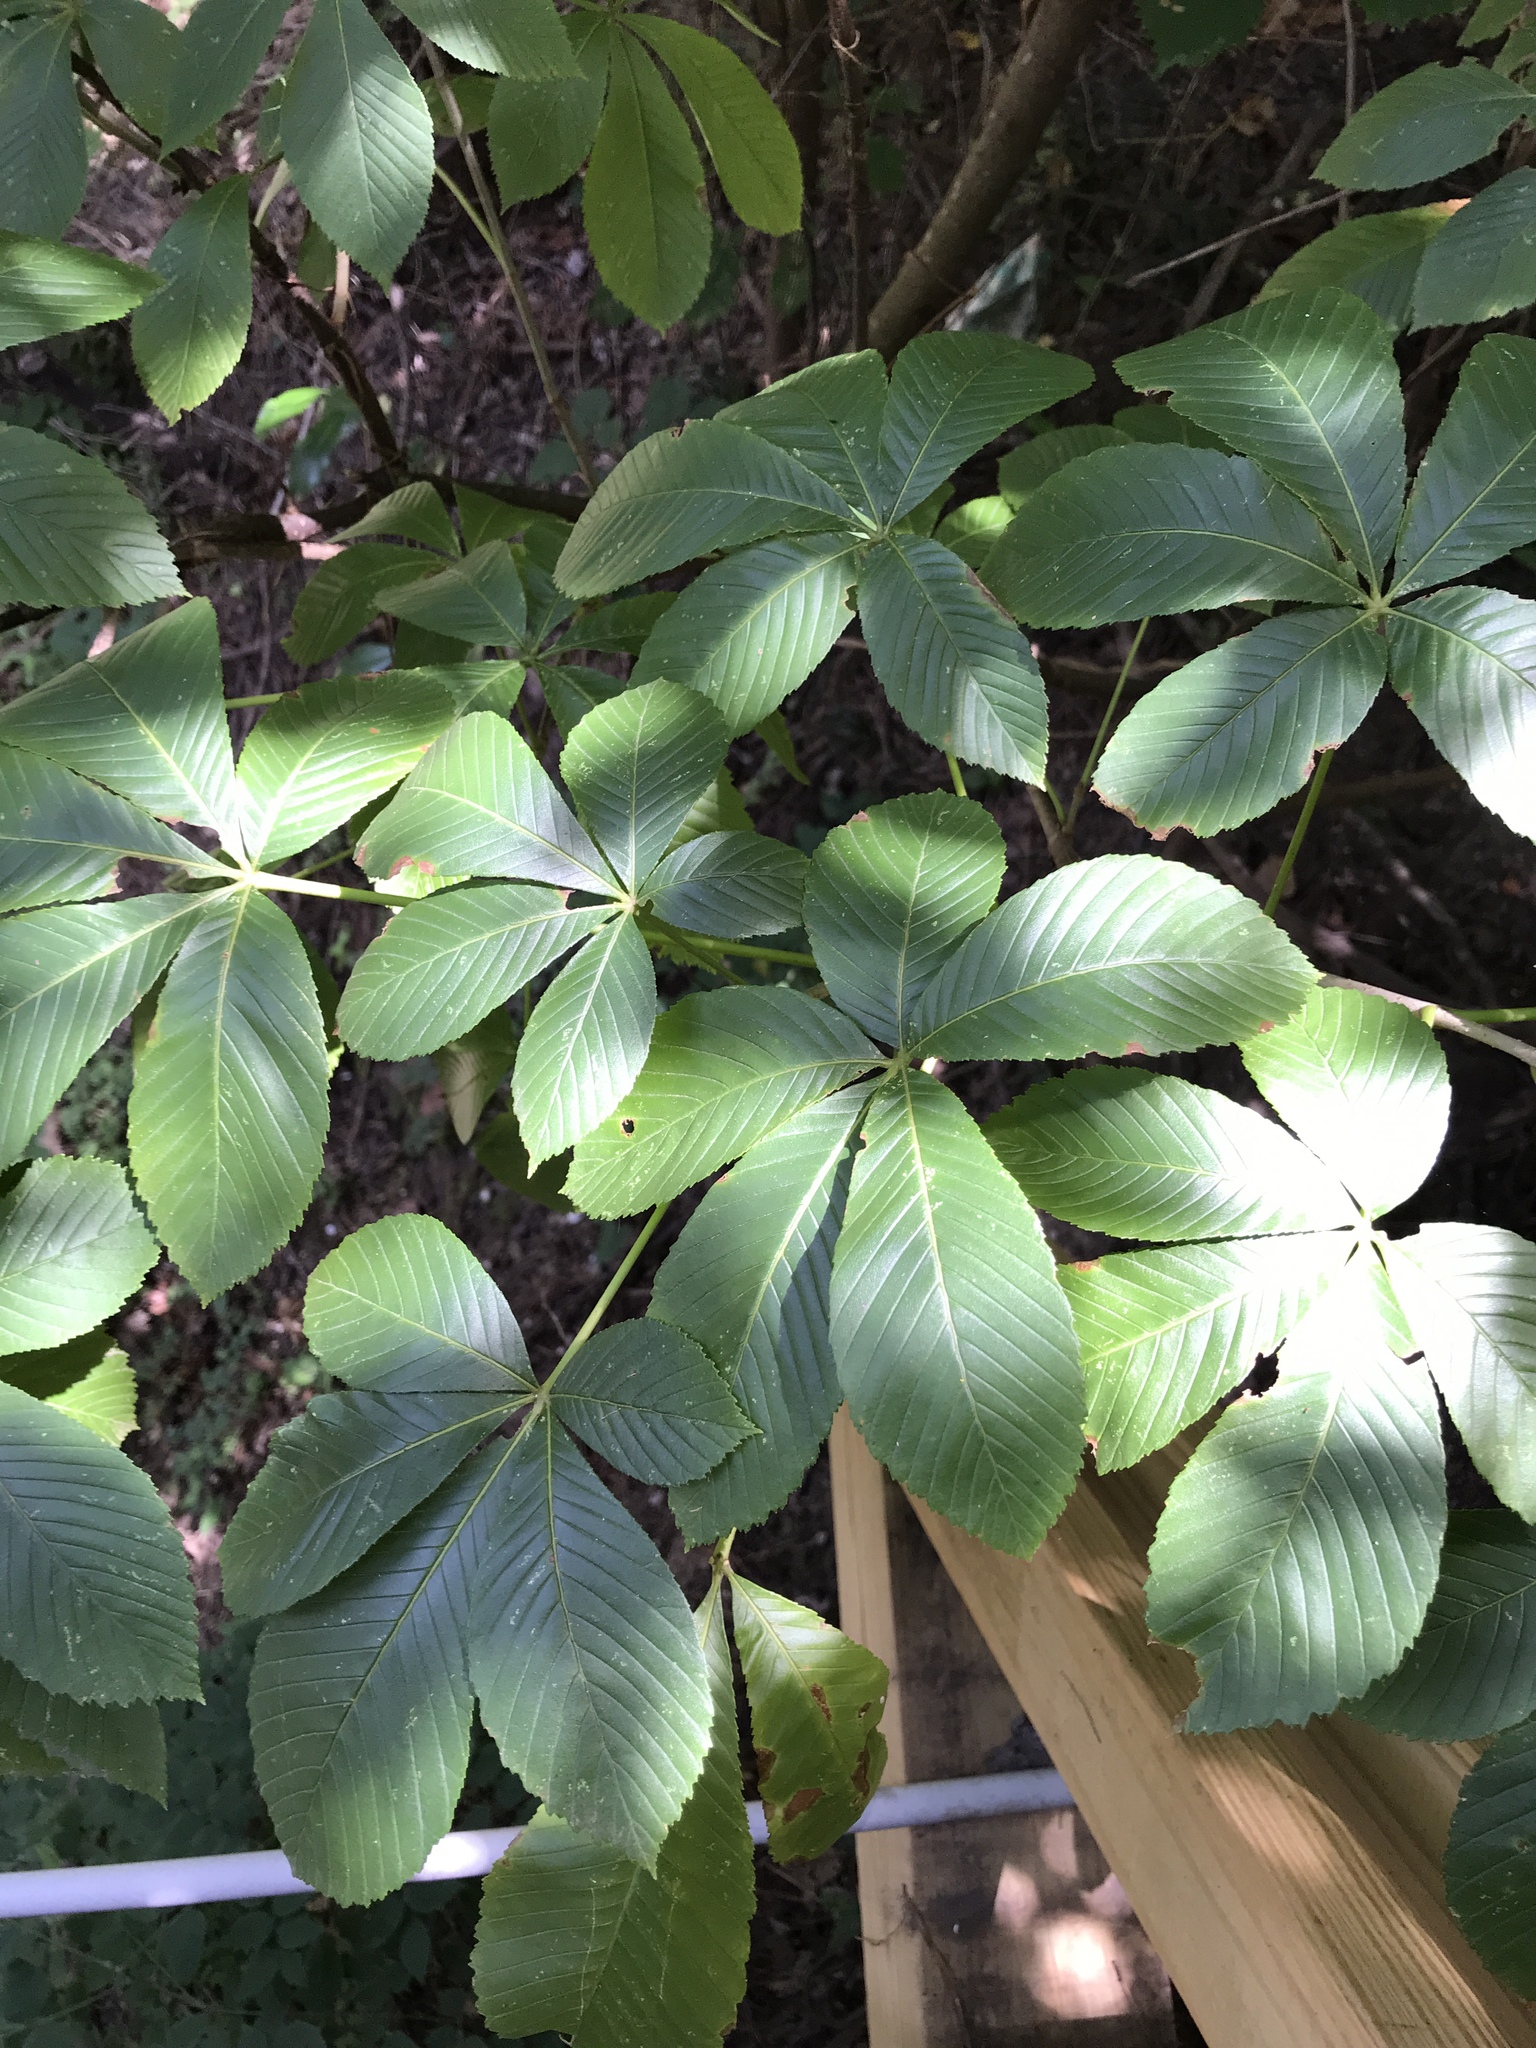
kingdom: Plantae
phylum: Tracheophyta
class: Magnoliopsida
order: Sapindales
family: Sapindaceae
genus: Aesculus
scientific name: Aesculus pavia
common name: Red buckeye
